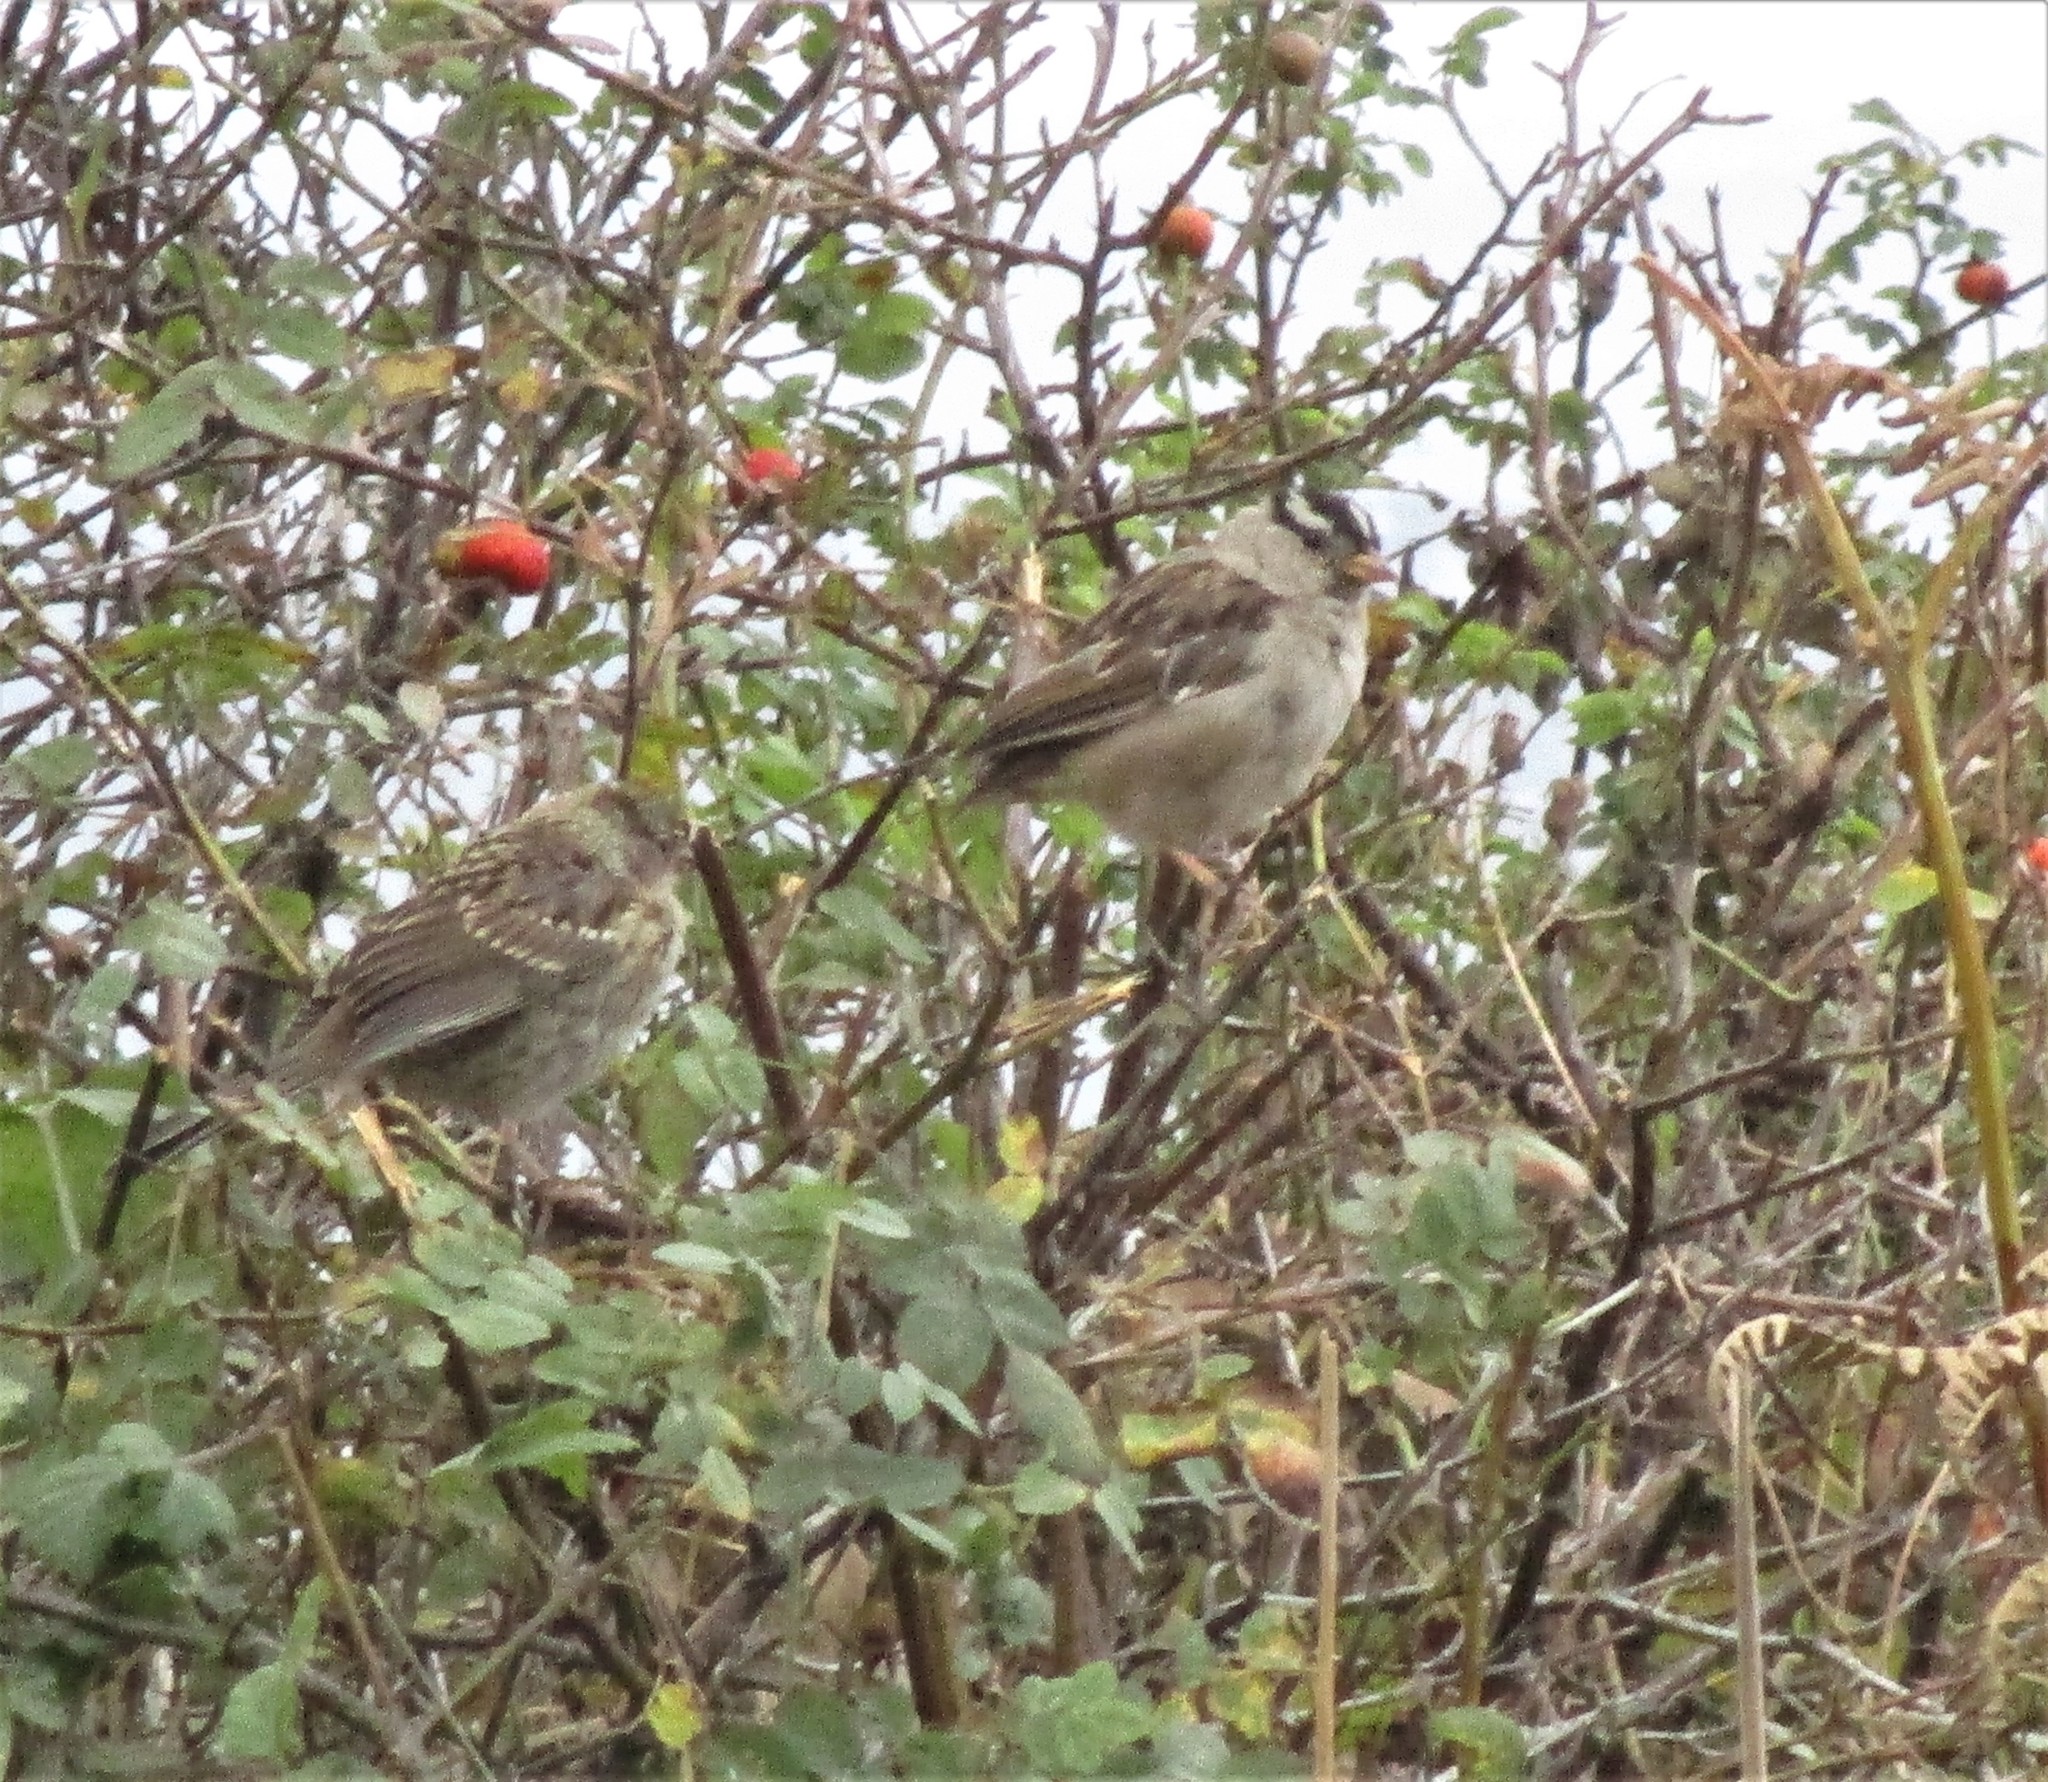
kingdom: Animalia
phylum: Chordata
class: Aves
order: Passeriformes
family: Passerellidae
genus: Zonotrichia
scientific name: Zonotrichia leucophrys
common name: White-crowned sparrow
